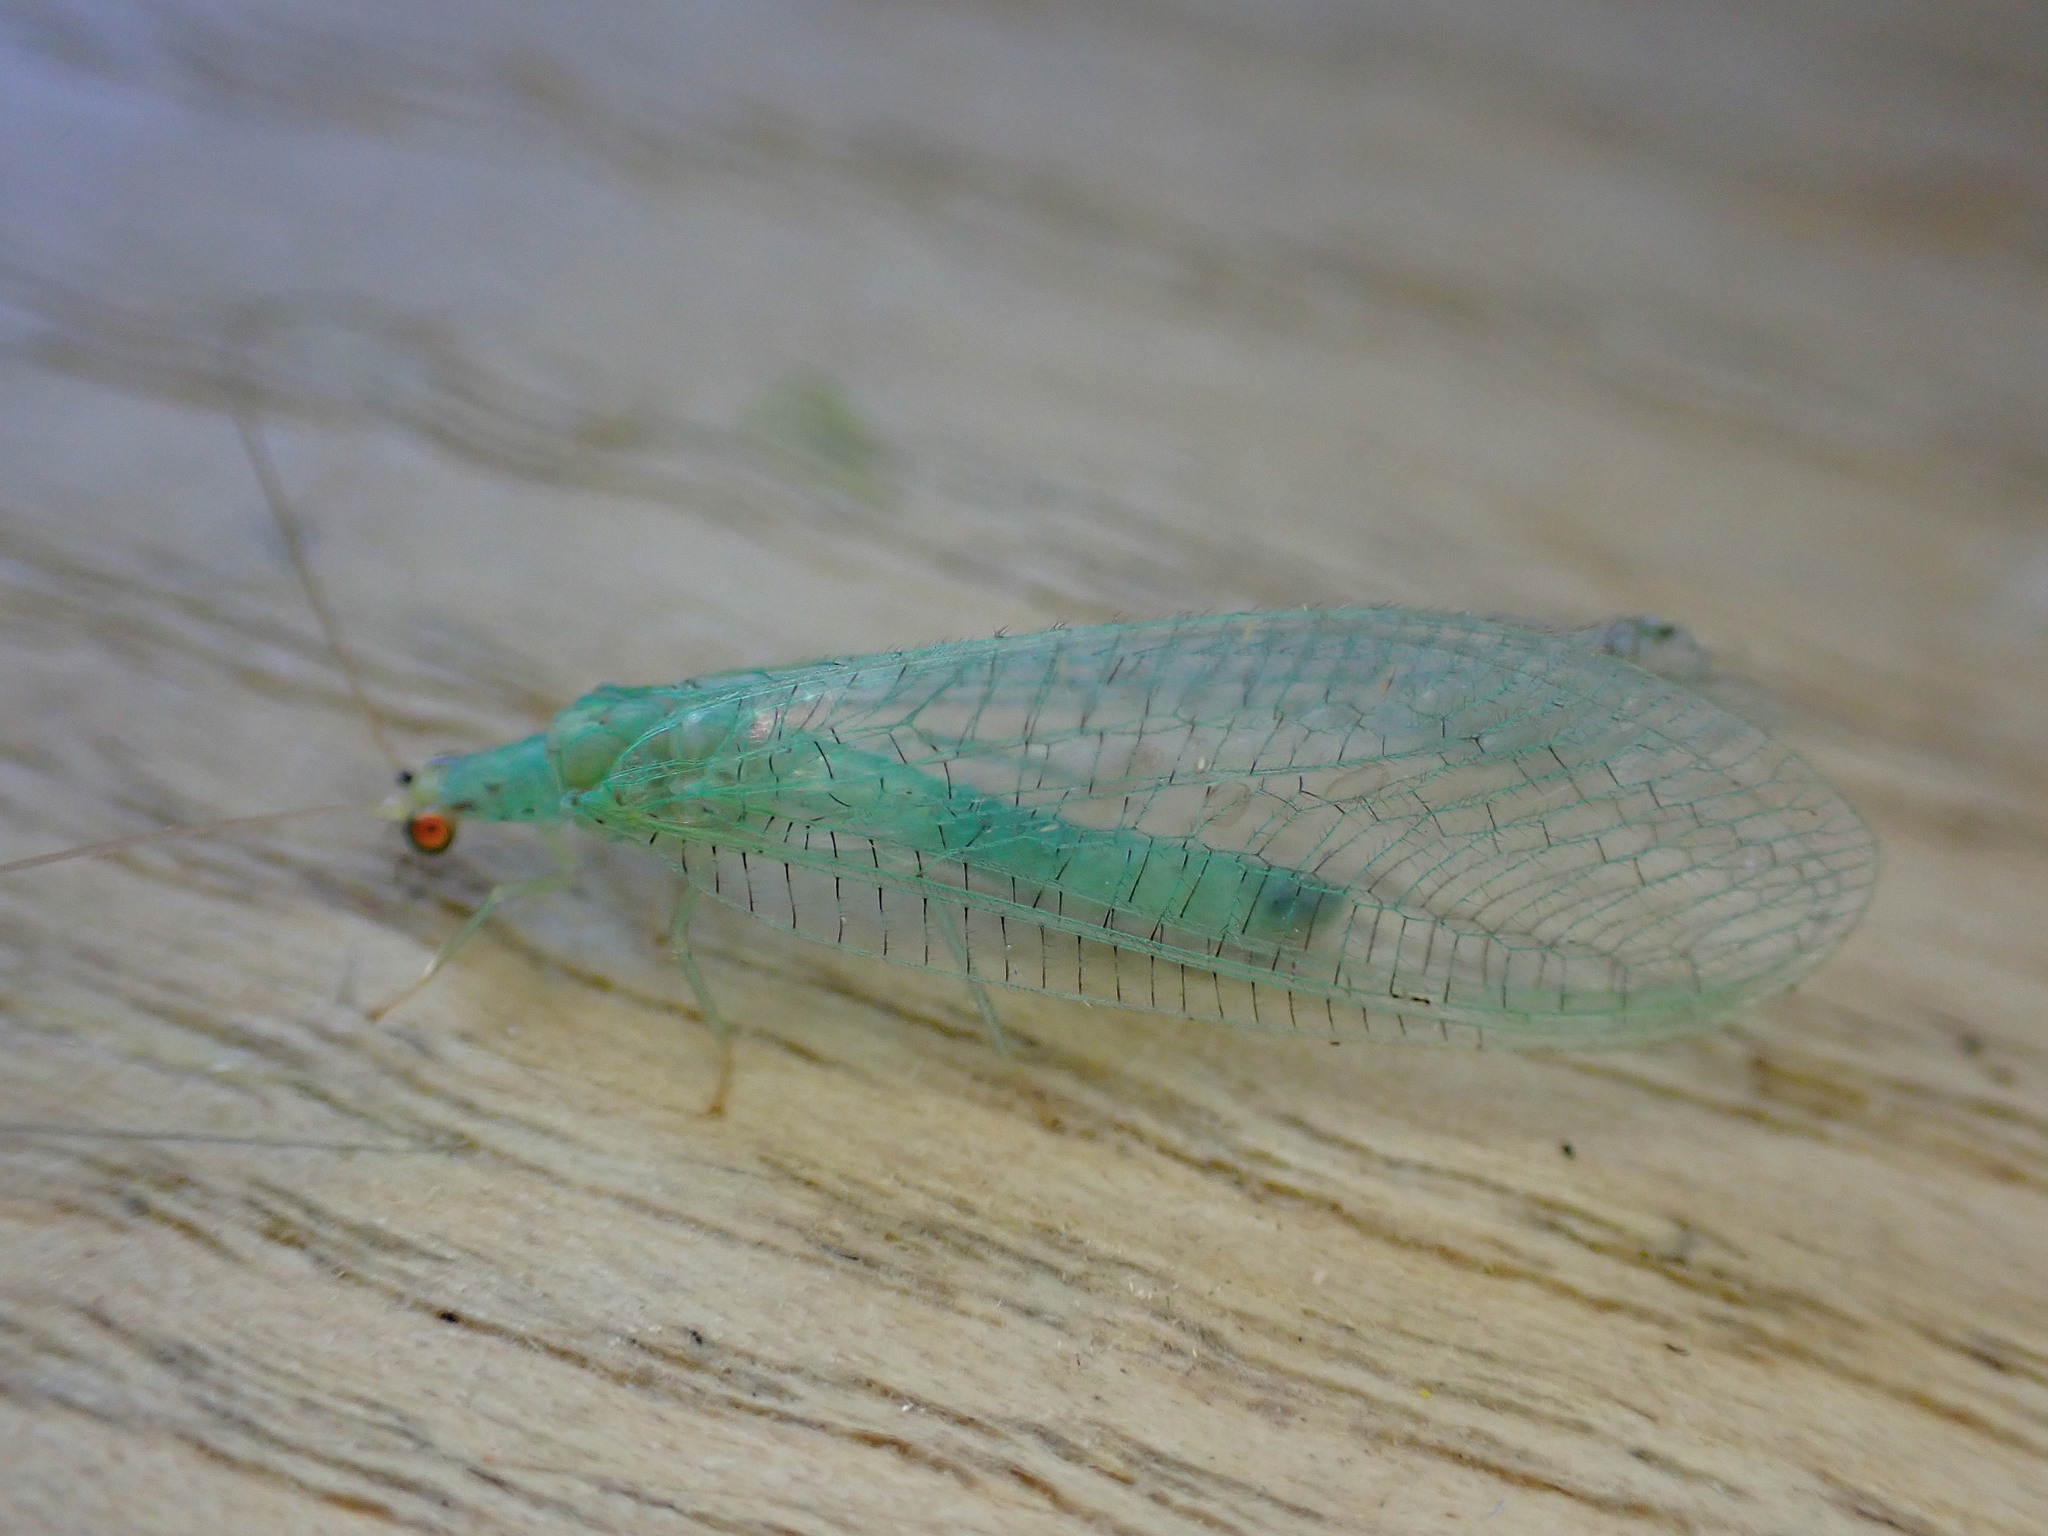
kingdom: Animalia
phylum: Arthropoda
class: Insecta
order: Neuroptera
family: Chrysopidae
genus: Pseudomallada
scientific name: Pseudomallada flavifrons
